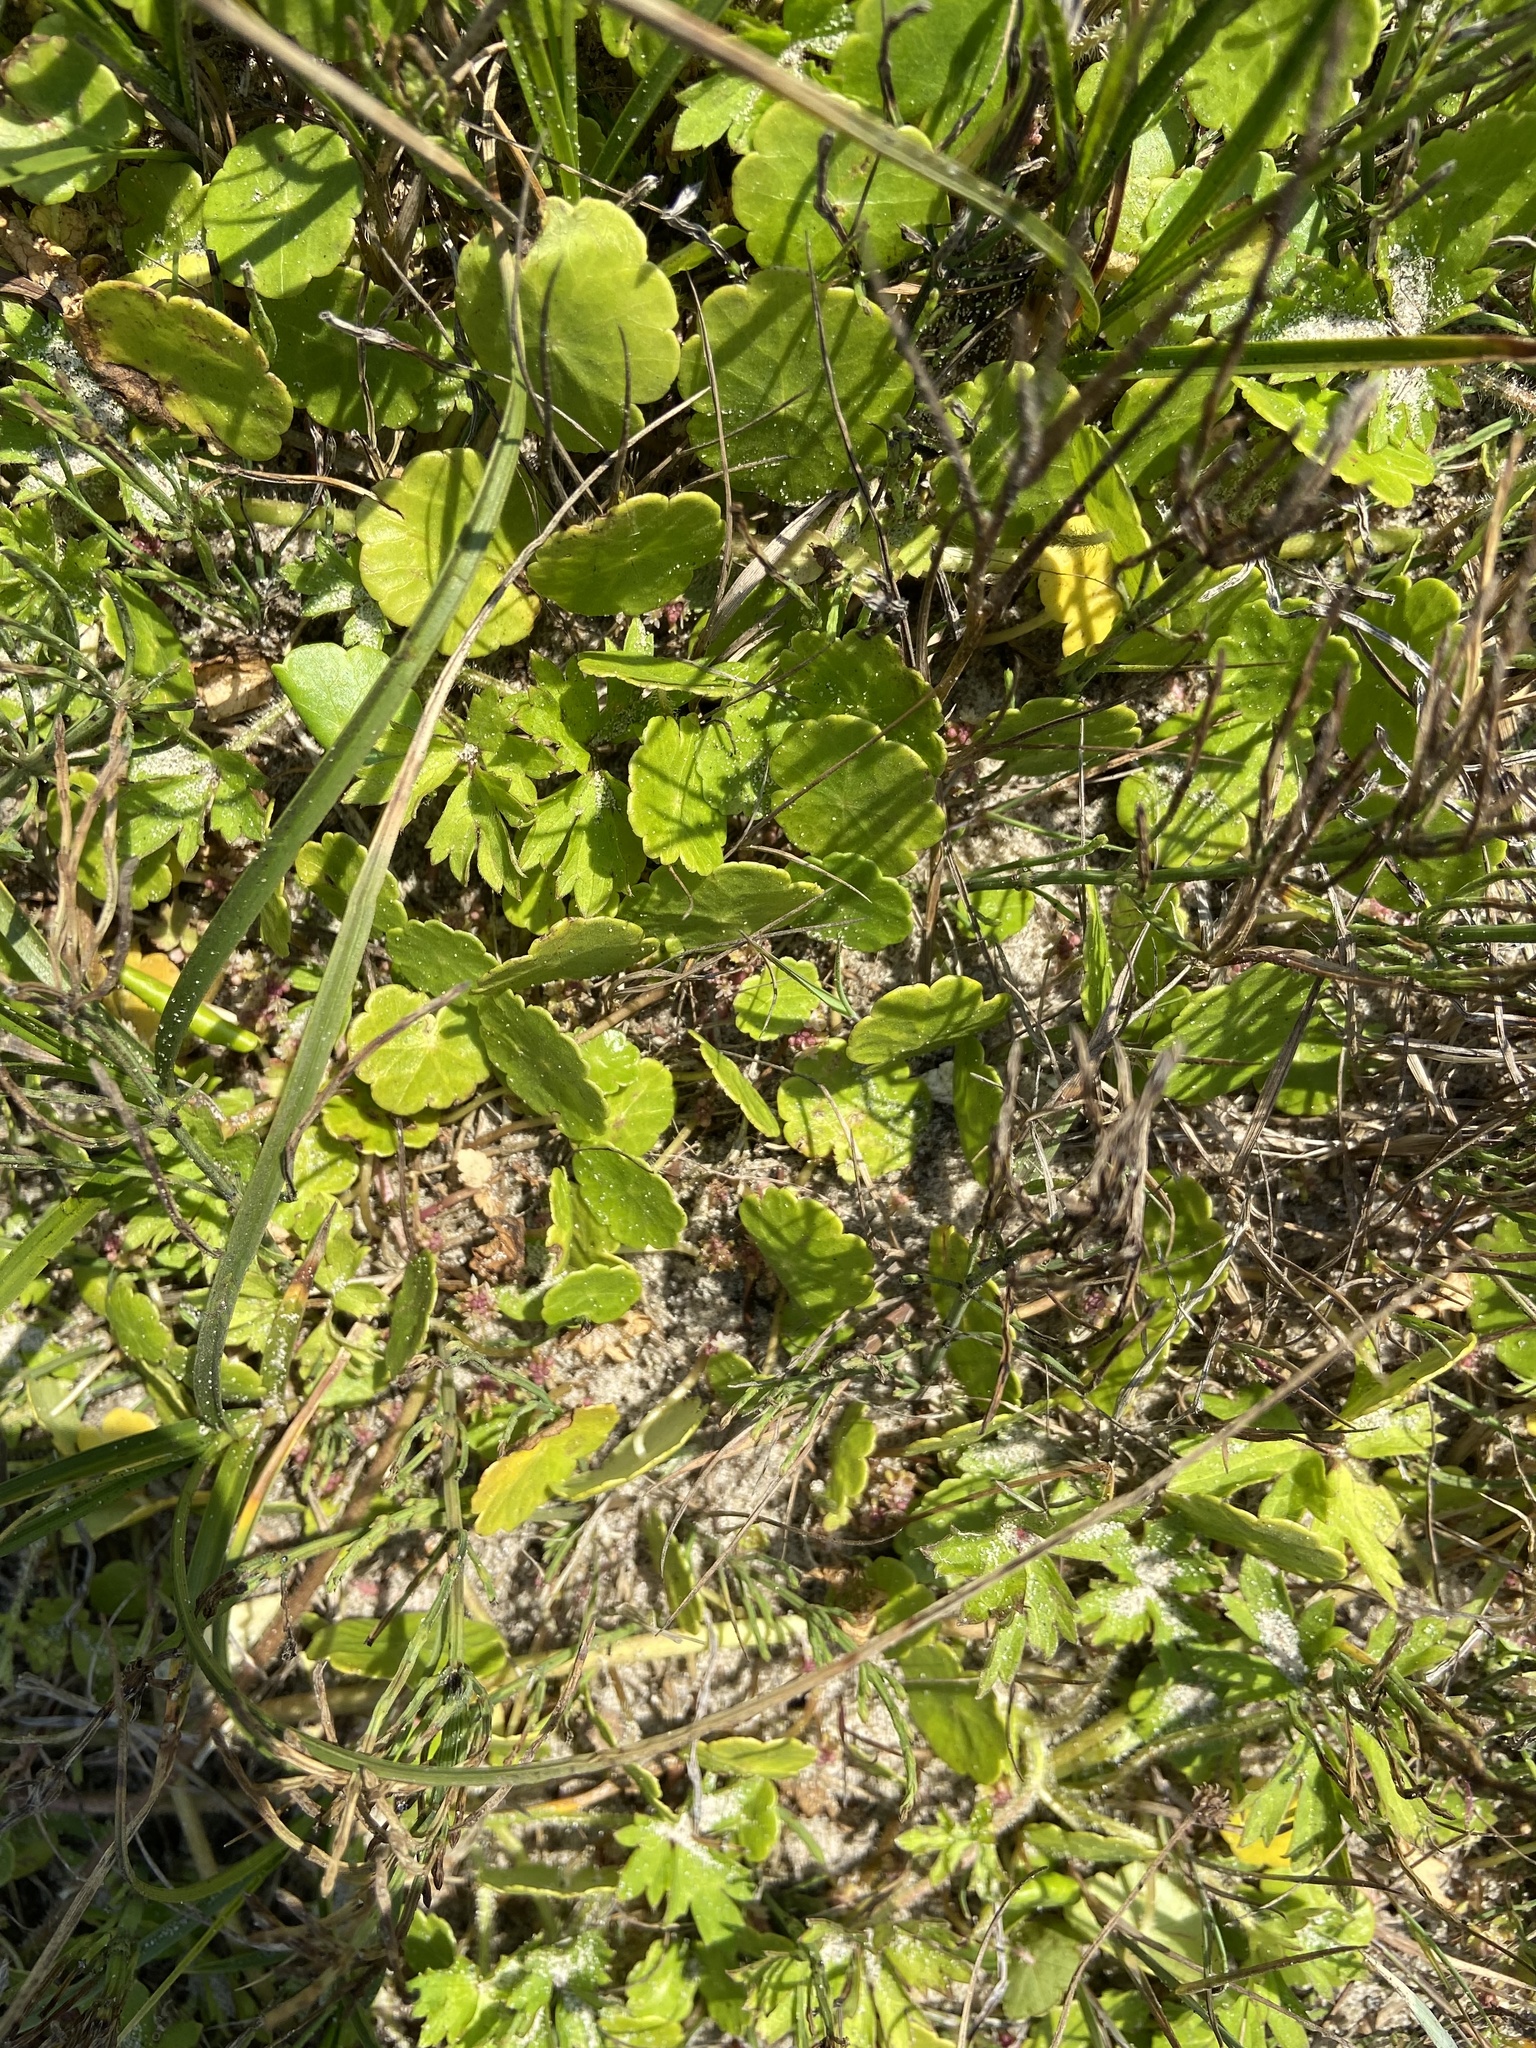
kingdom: Plantae
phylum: Tracheophyta
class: Magnoliopsida
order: Apiales
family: Araliaceae
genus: Hydrocotyle
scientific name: Hydrocotyle vulgaris
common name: Marsh pennywort
